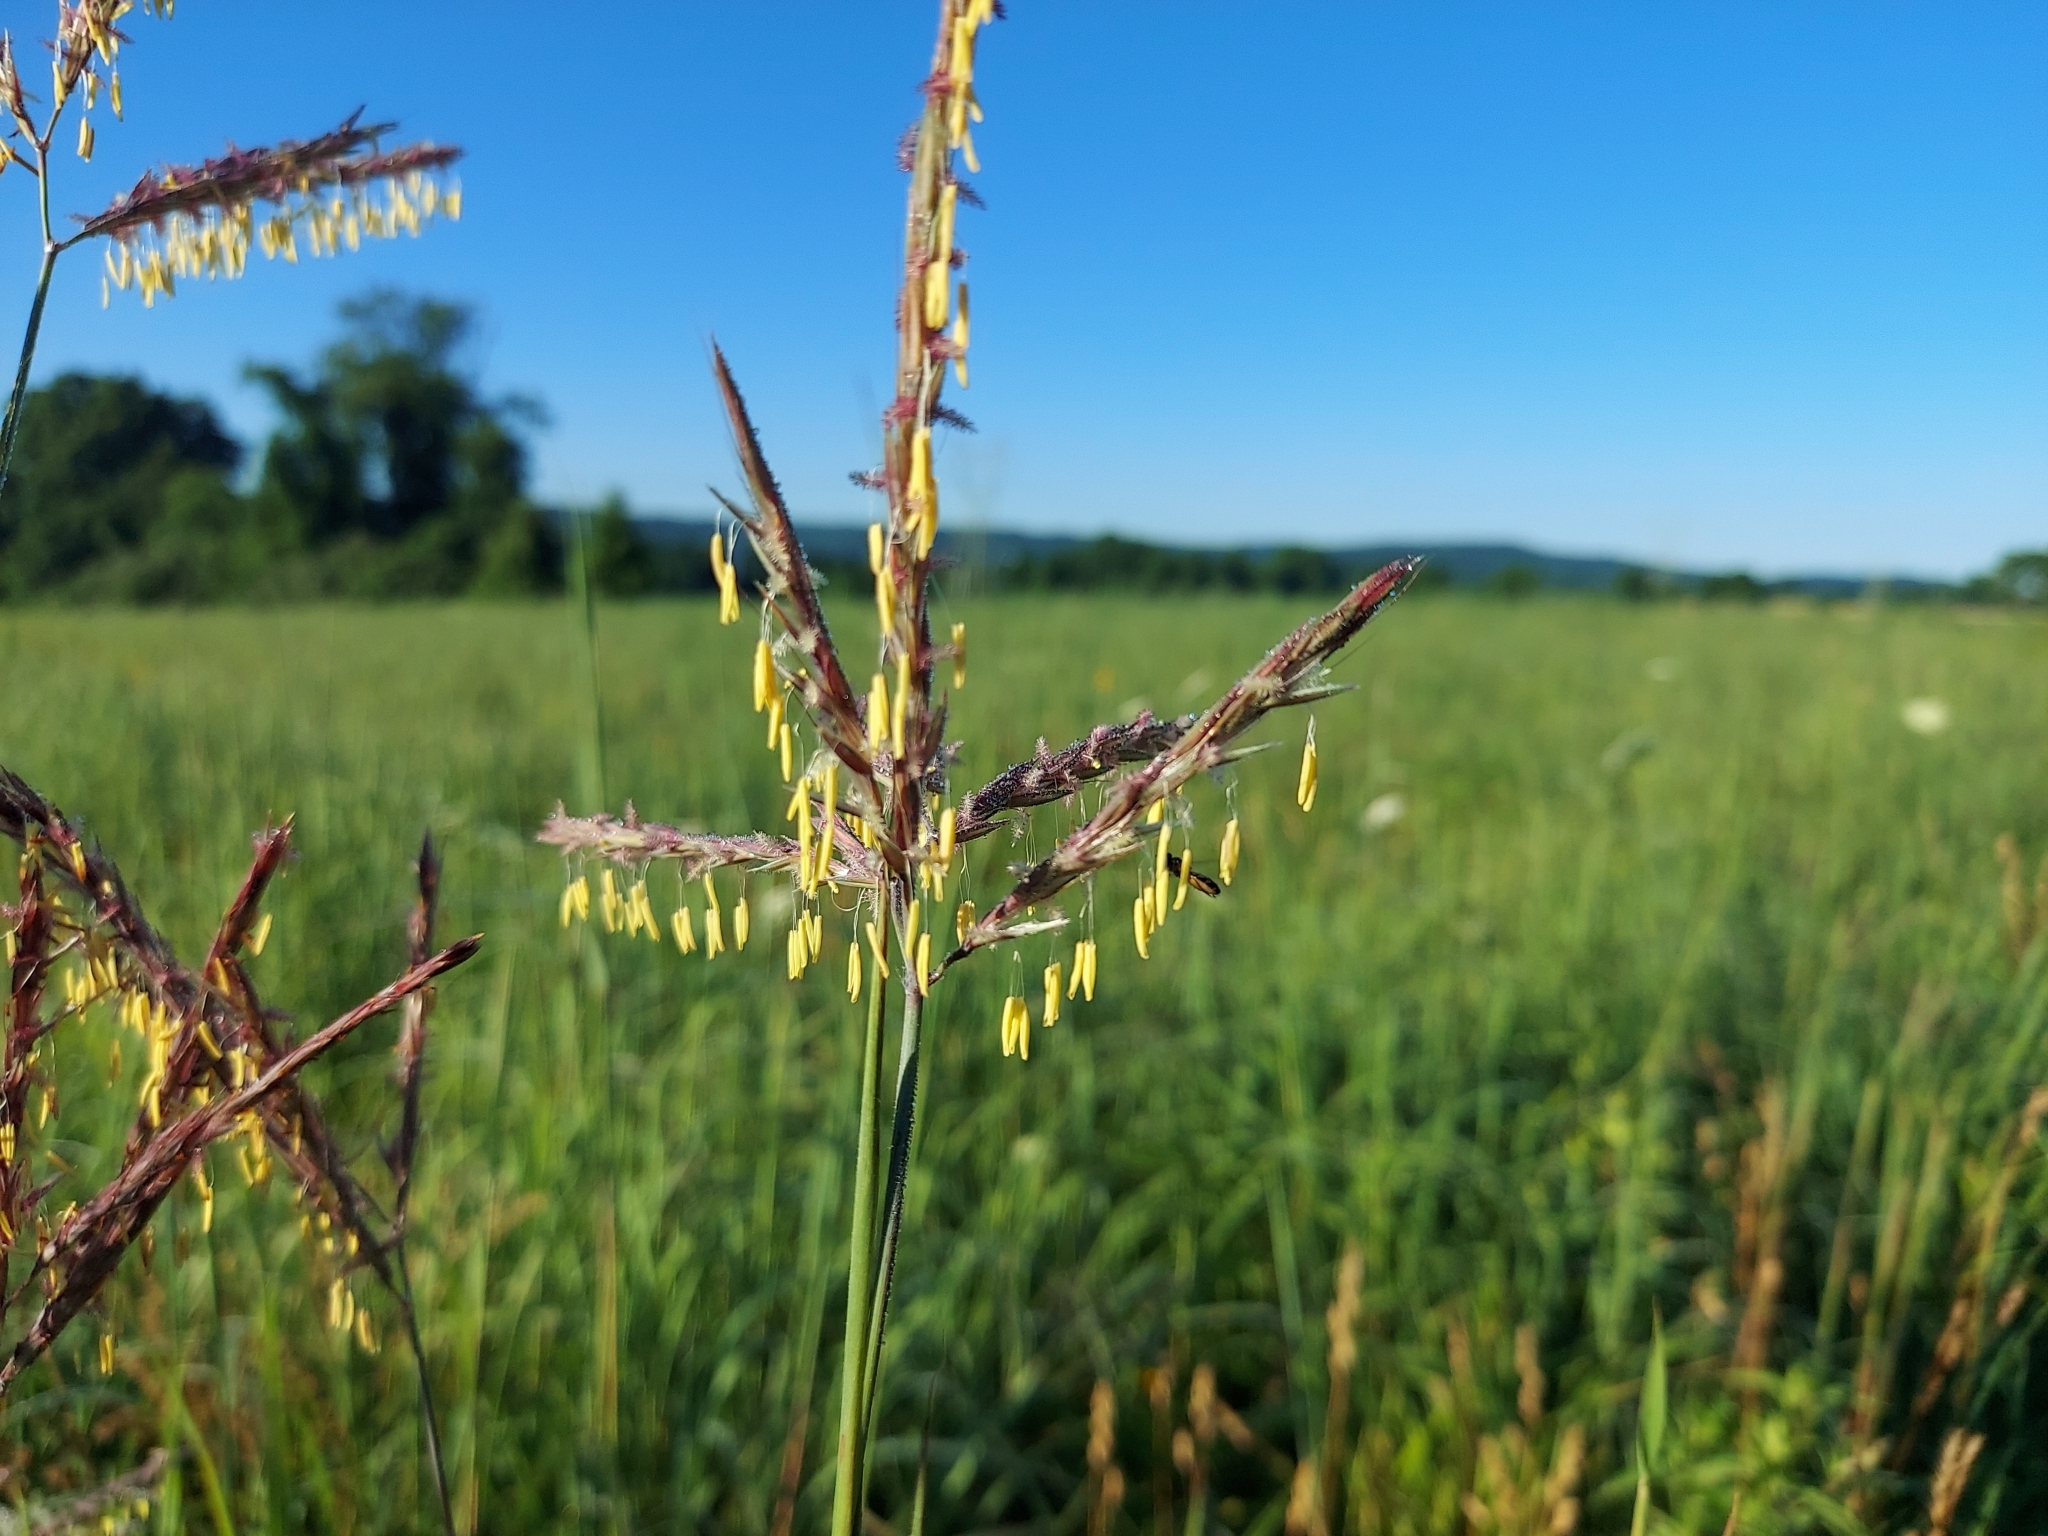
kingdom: Plantae
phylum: Tracheophyta
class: Liliopsida
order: Poales
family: Poaceae
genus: Andropogon
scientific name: Andropogon gerardi
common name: Big bluestem
